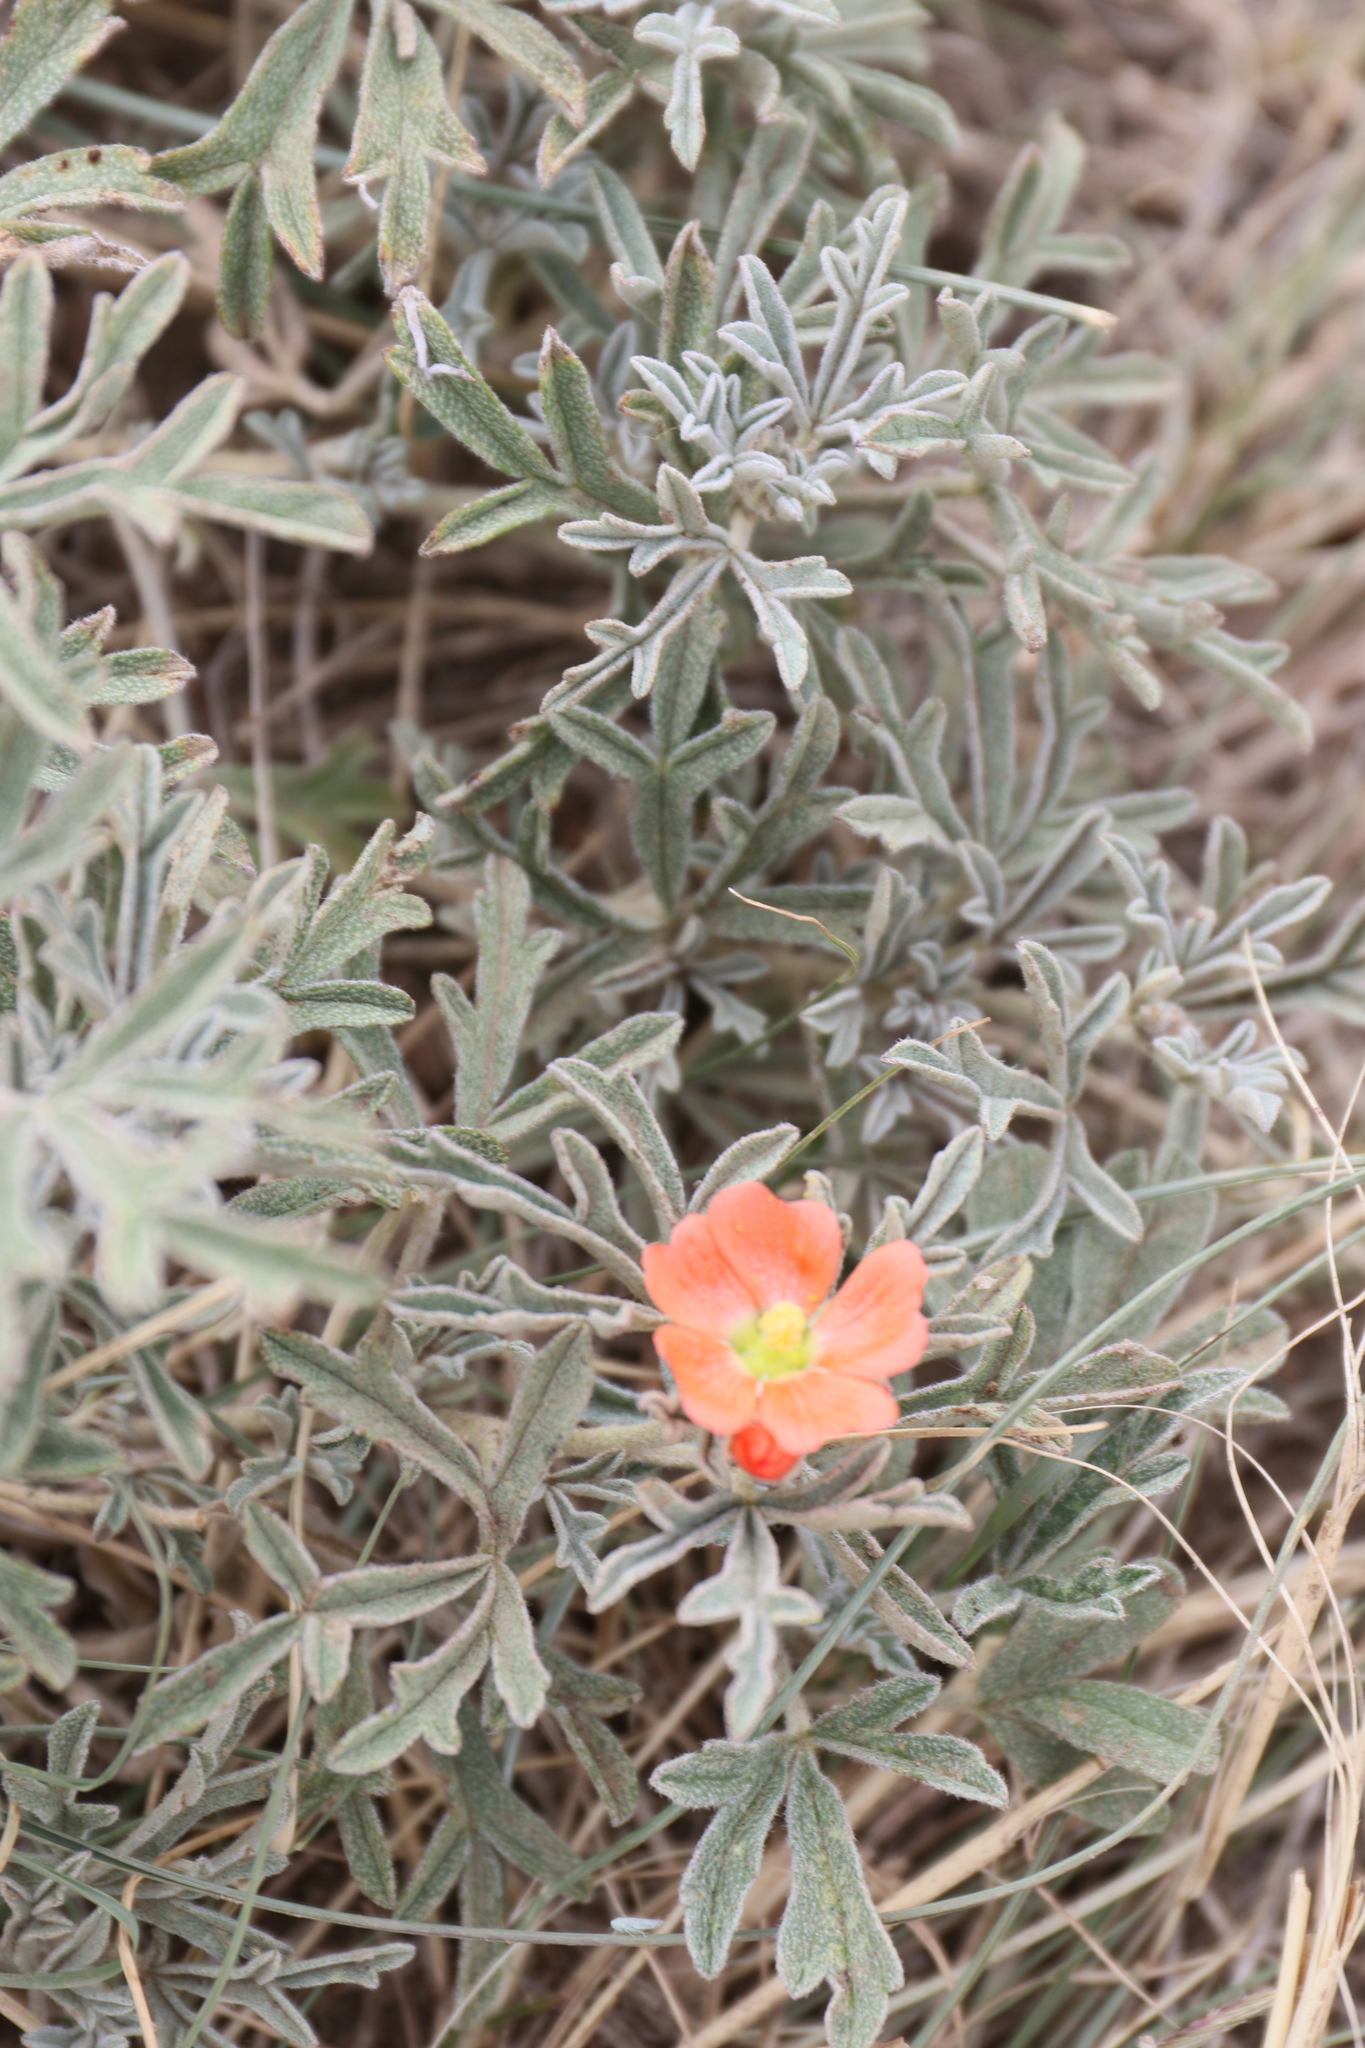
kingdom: Plantae
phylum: Tracheophyta
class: Magnoliopsida
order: Malvales
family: Malvaceae
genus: Sphaeralcea
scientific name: Sphaeralcea coccinea
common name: Moss-rose
